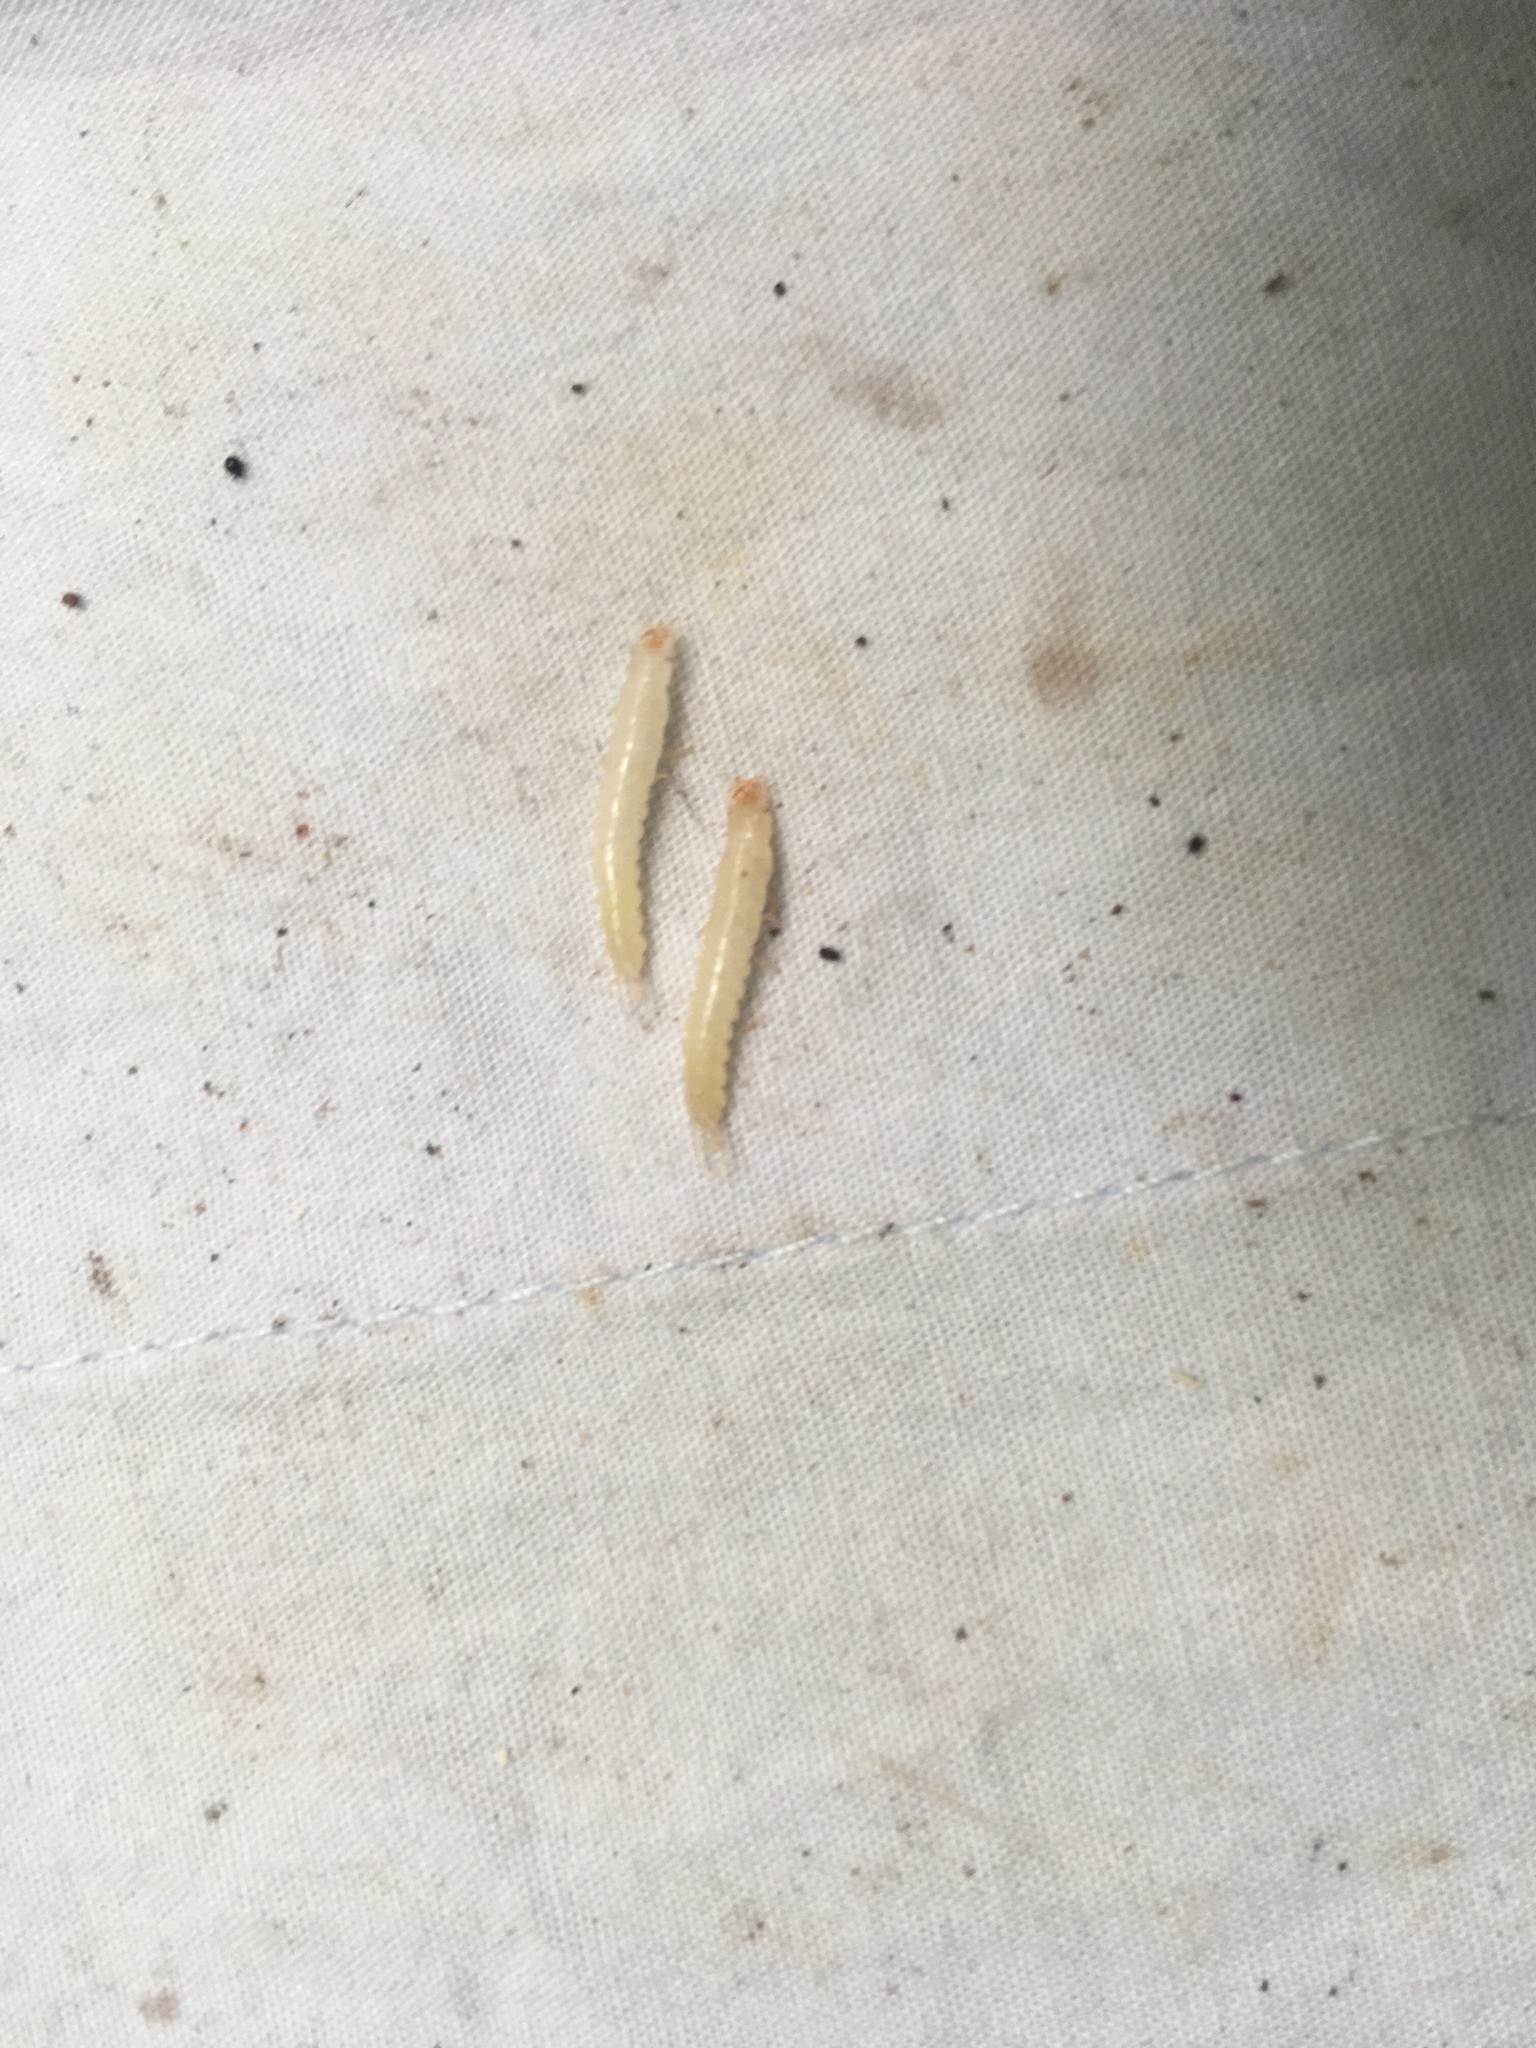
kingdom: Animalia
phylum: Arthropoda
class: Insecta
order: Coleoptera
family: Carabidae
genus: Plocamostethus
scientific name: Plocamostethus planiusculus
